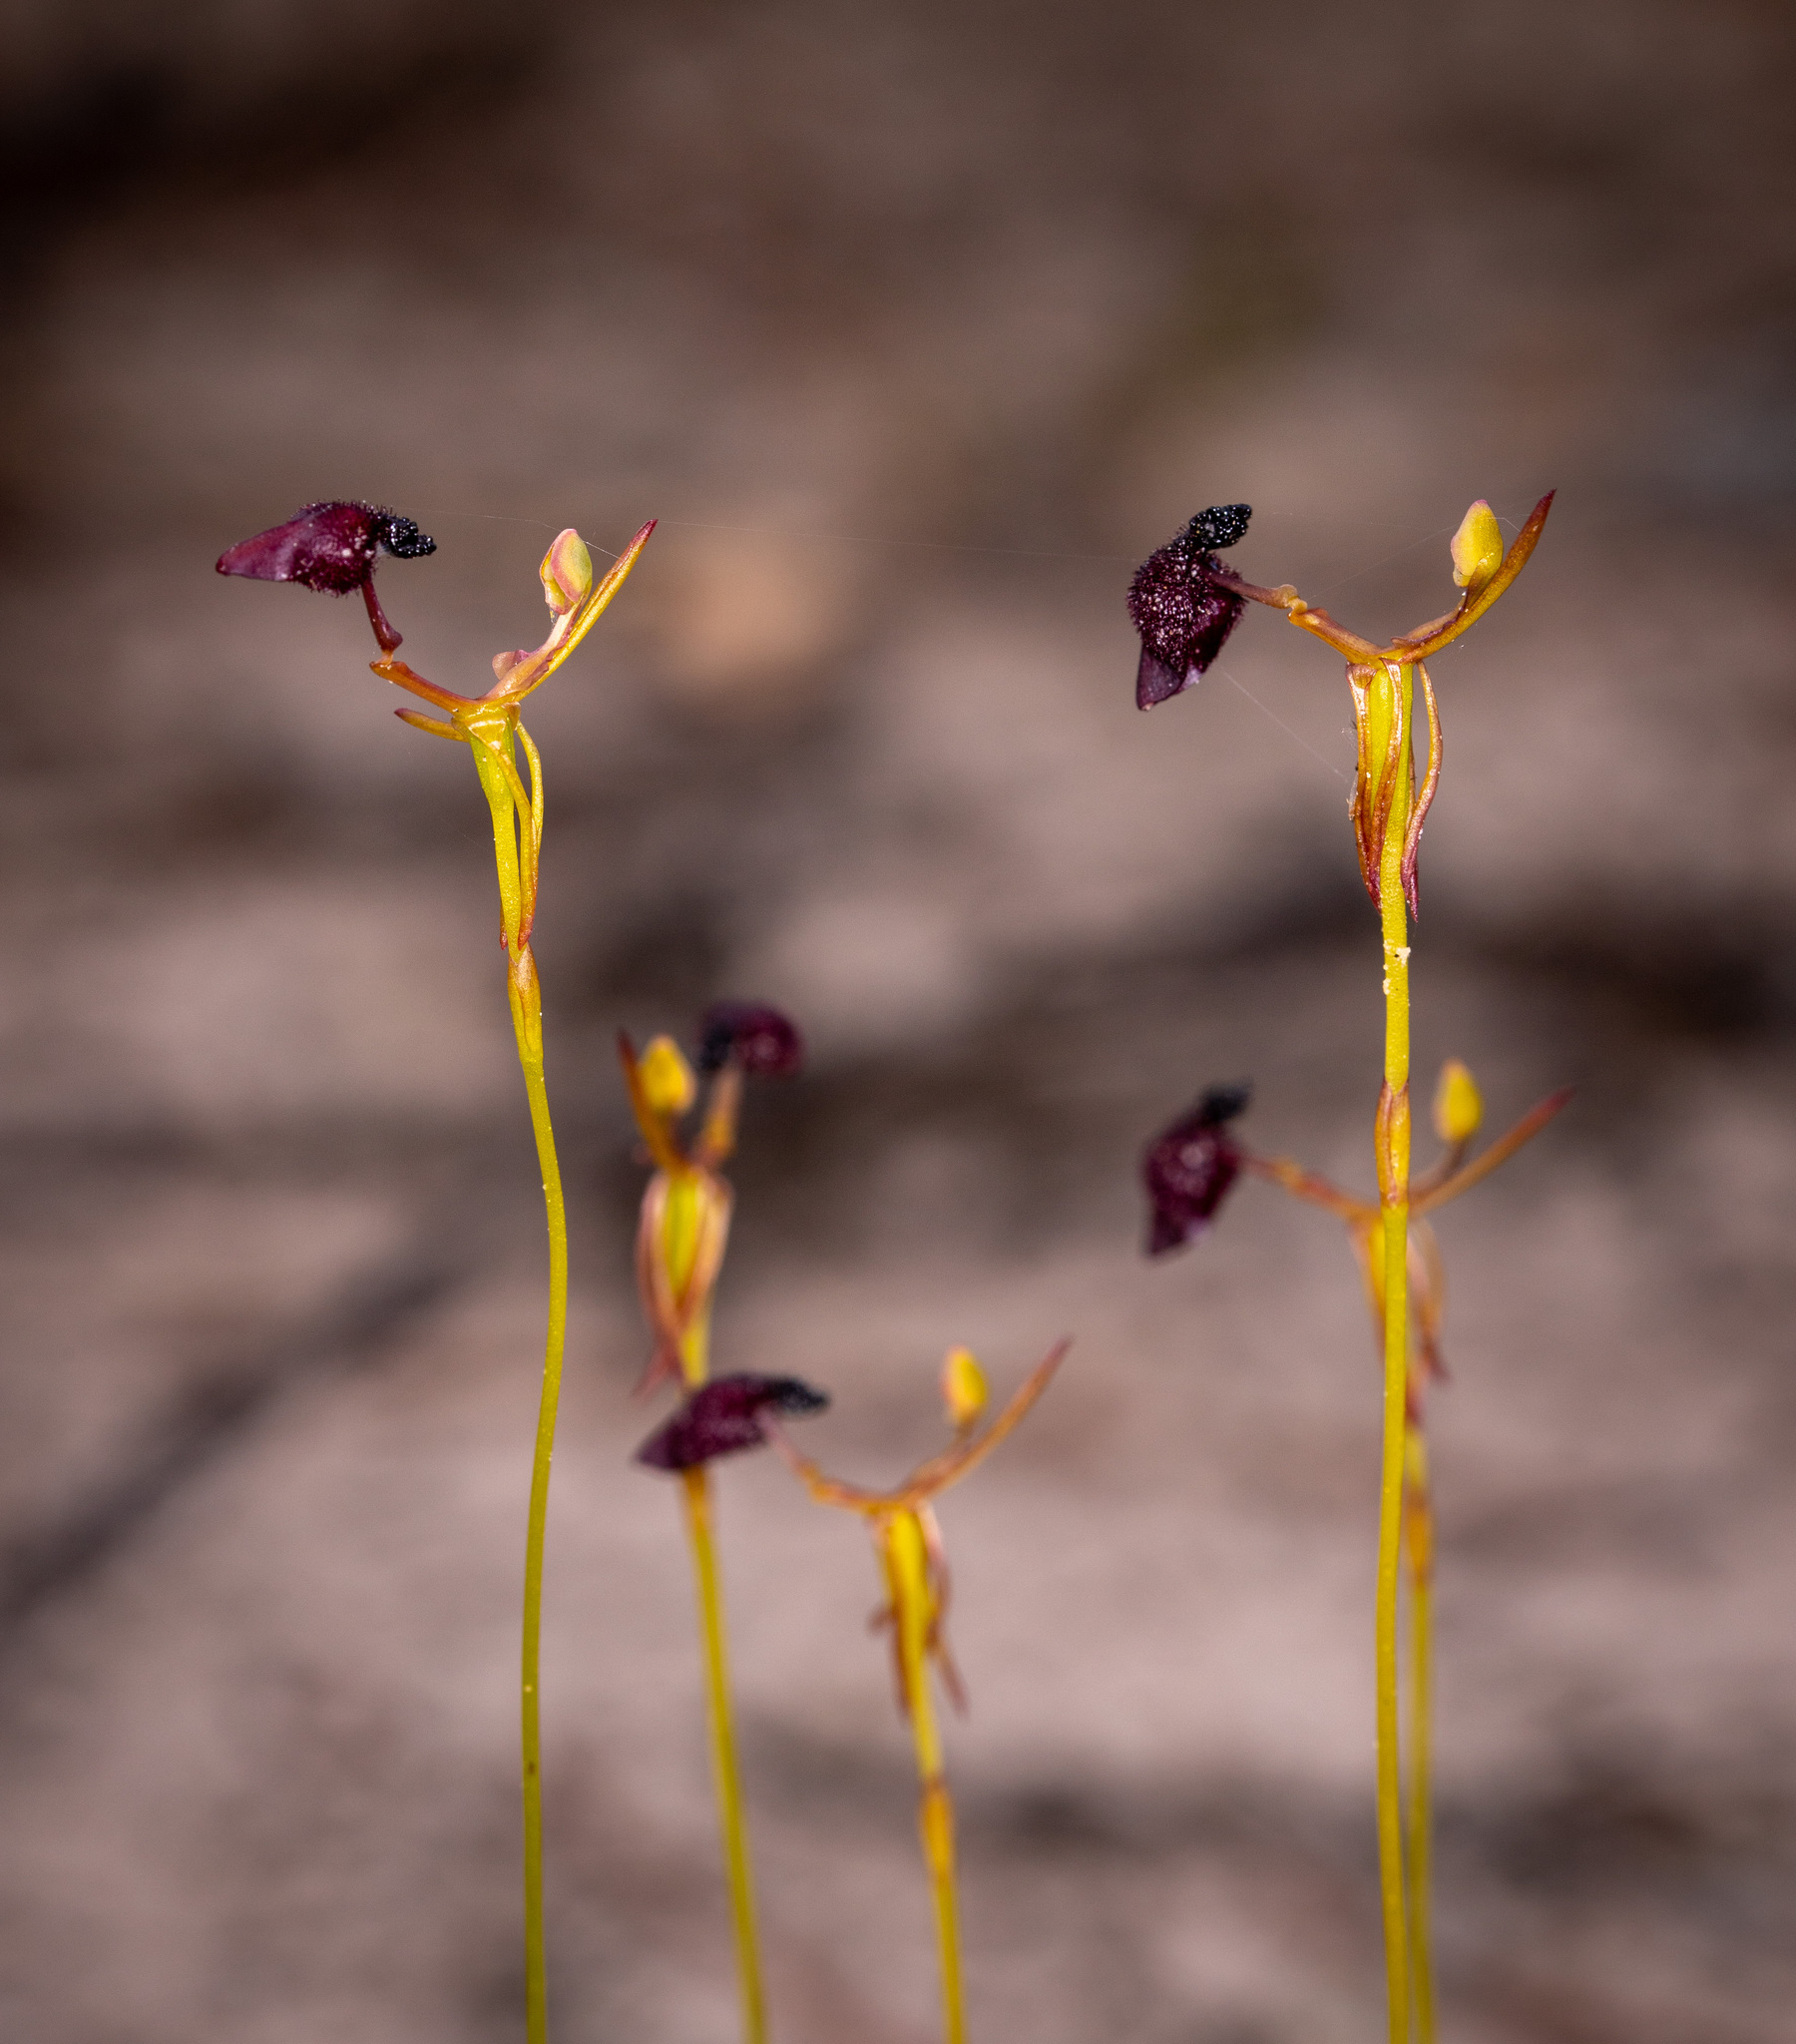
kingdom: Plantae
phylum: Tracheophyta
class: Liliopsida
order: Asparagales
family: Orchidaceae
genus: Drakaea
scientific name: Drakaea glyptodon
